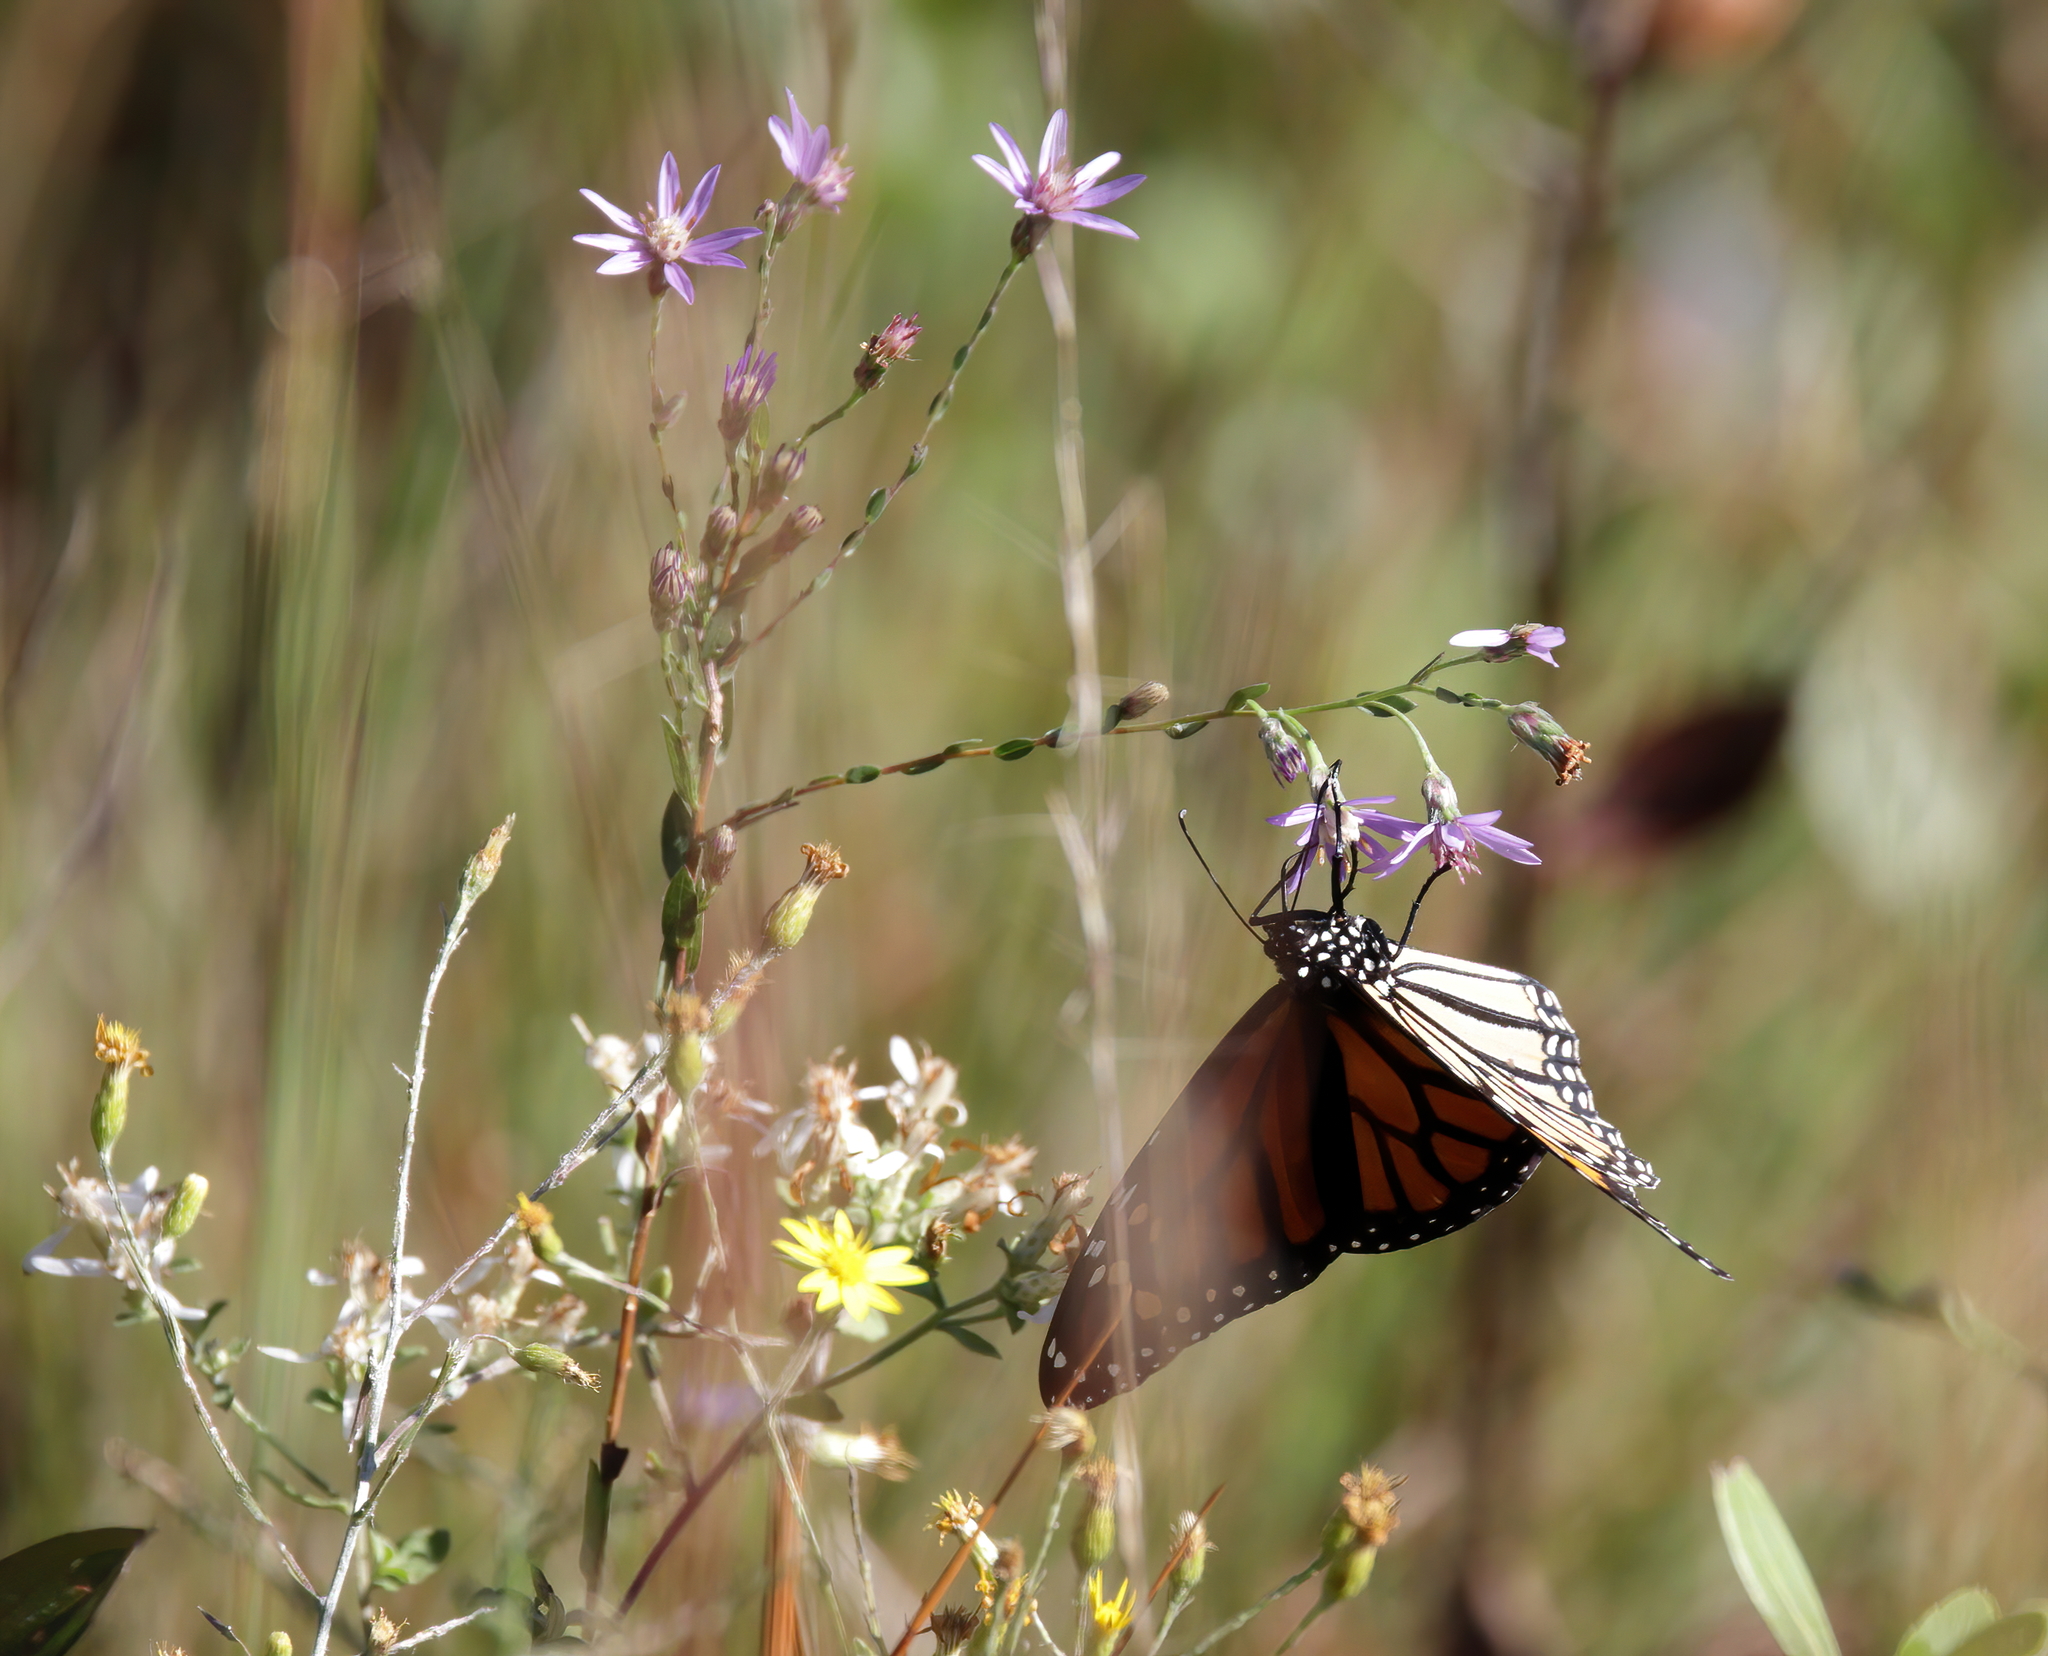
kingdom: Animalia
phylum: Arthropoda
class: Insecta
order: Lepidoptera
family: Nymphalidae
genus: Danaus
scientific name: Danaus plexippus
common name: Monarch
